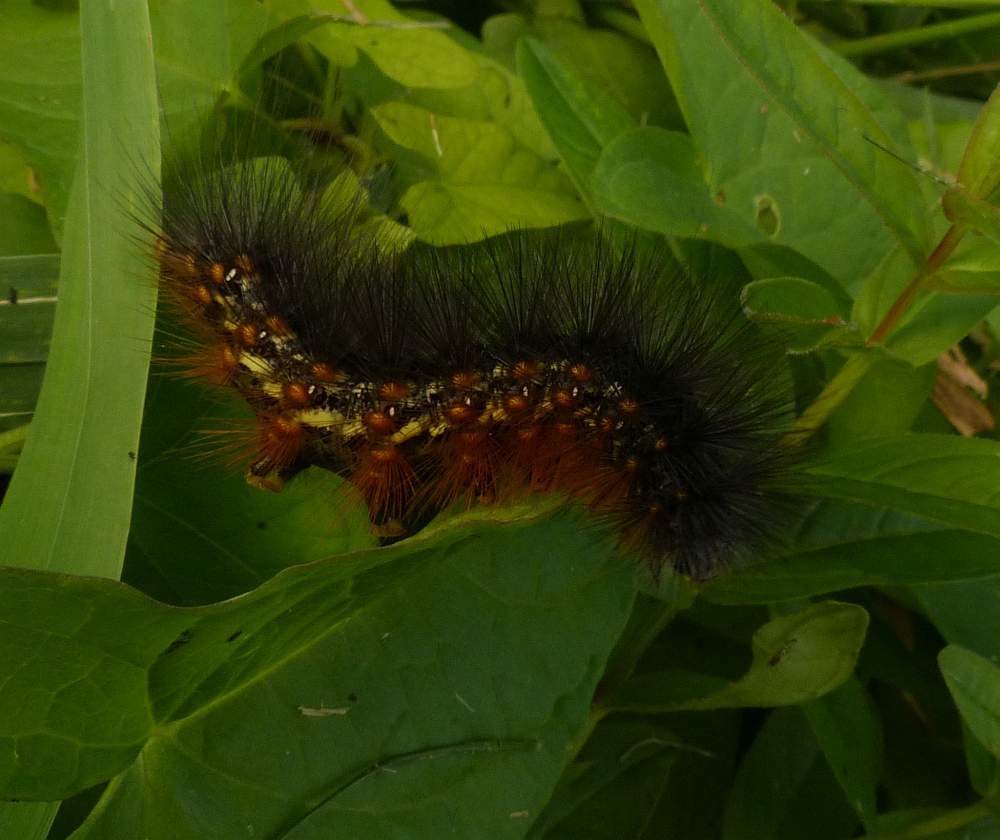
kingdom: Animalia
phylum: Arthropoda
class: Insecta
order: Lepidoptera
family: Erebidae
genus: Estigmene
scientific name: Estigmene acrea
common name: Salt marsh moth
